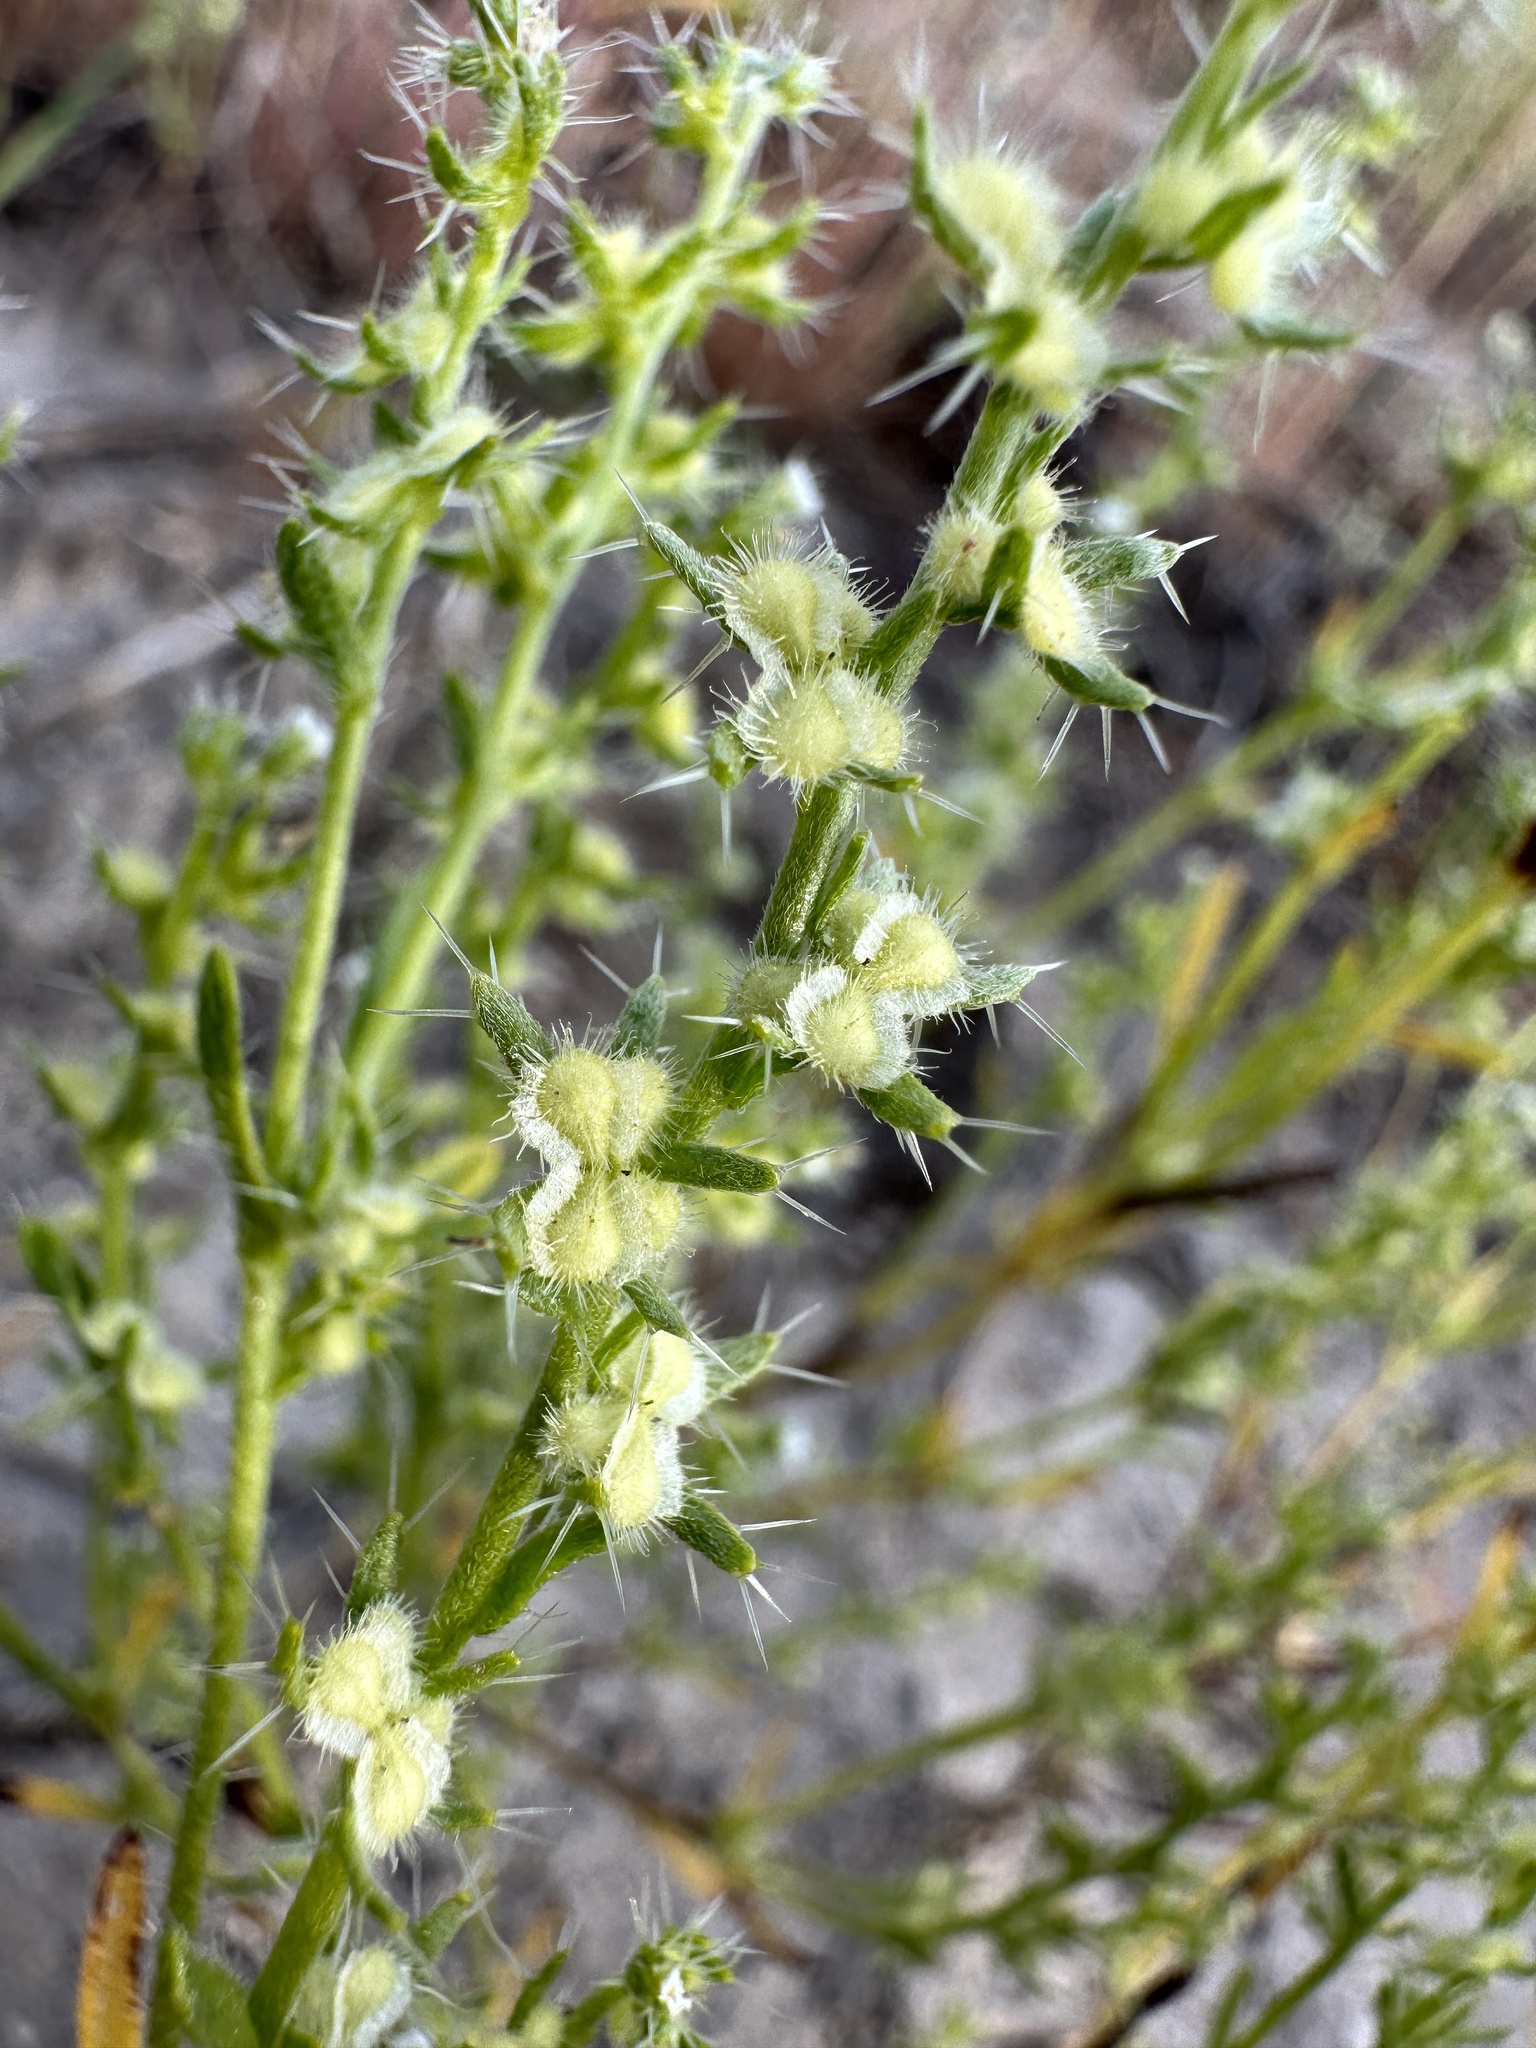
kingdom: Plantae
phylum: Tracheophyta
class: Magnoliopsida
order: Boraginales
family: Boraginaceae
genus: Pectocarya
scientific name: Pectocarya setosa
